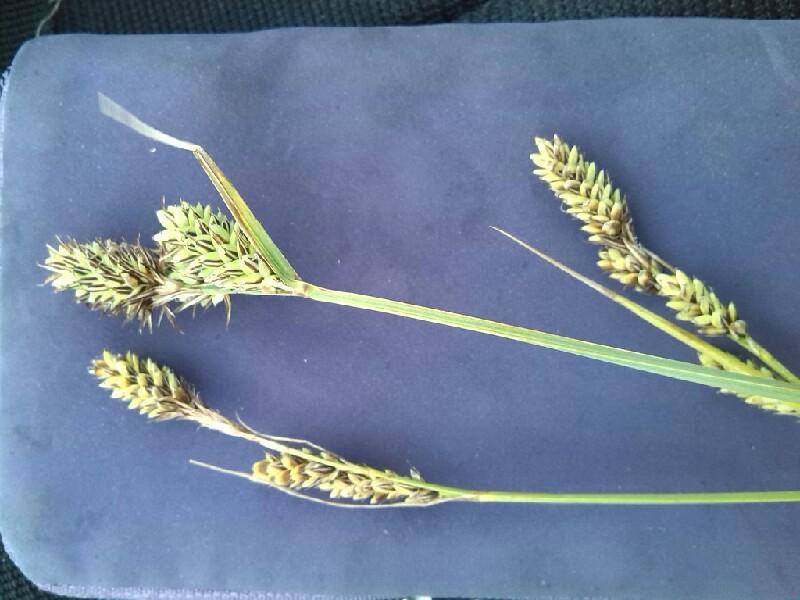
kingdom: Plantae
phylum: Tracheophyta
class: Liliopsida
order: Poales
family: Cyperaceae
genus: Carex
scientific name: Carex buxbaumii
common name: Club sedge
